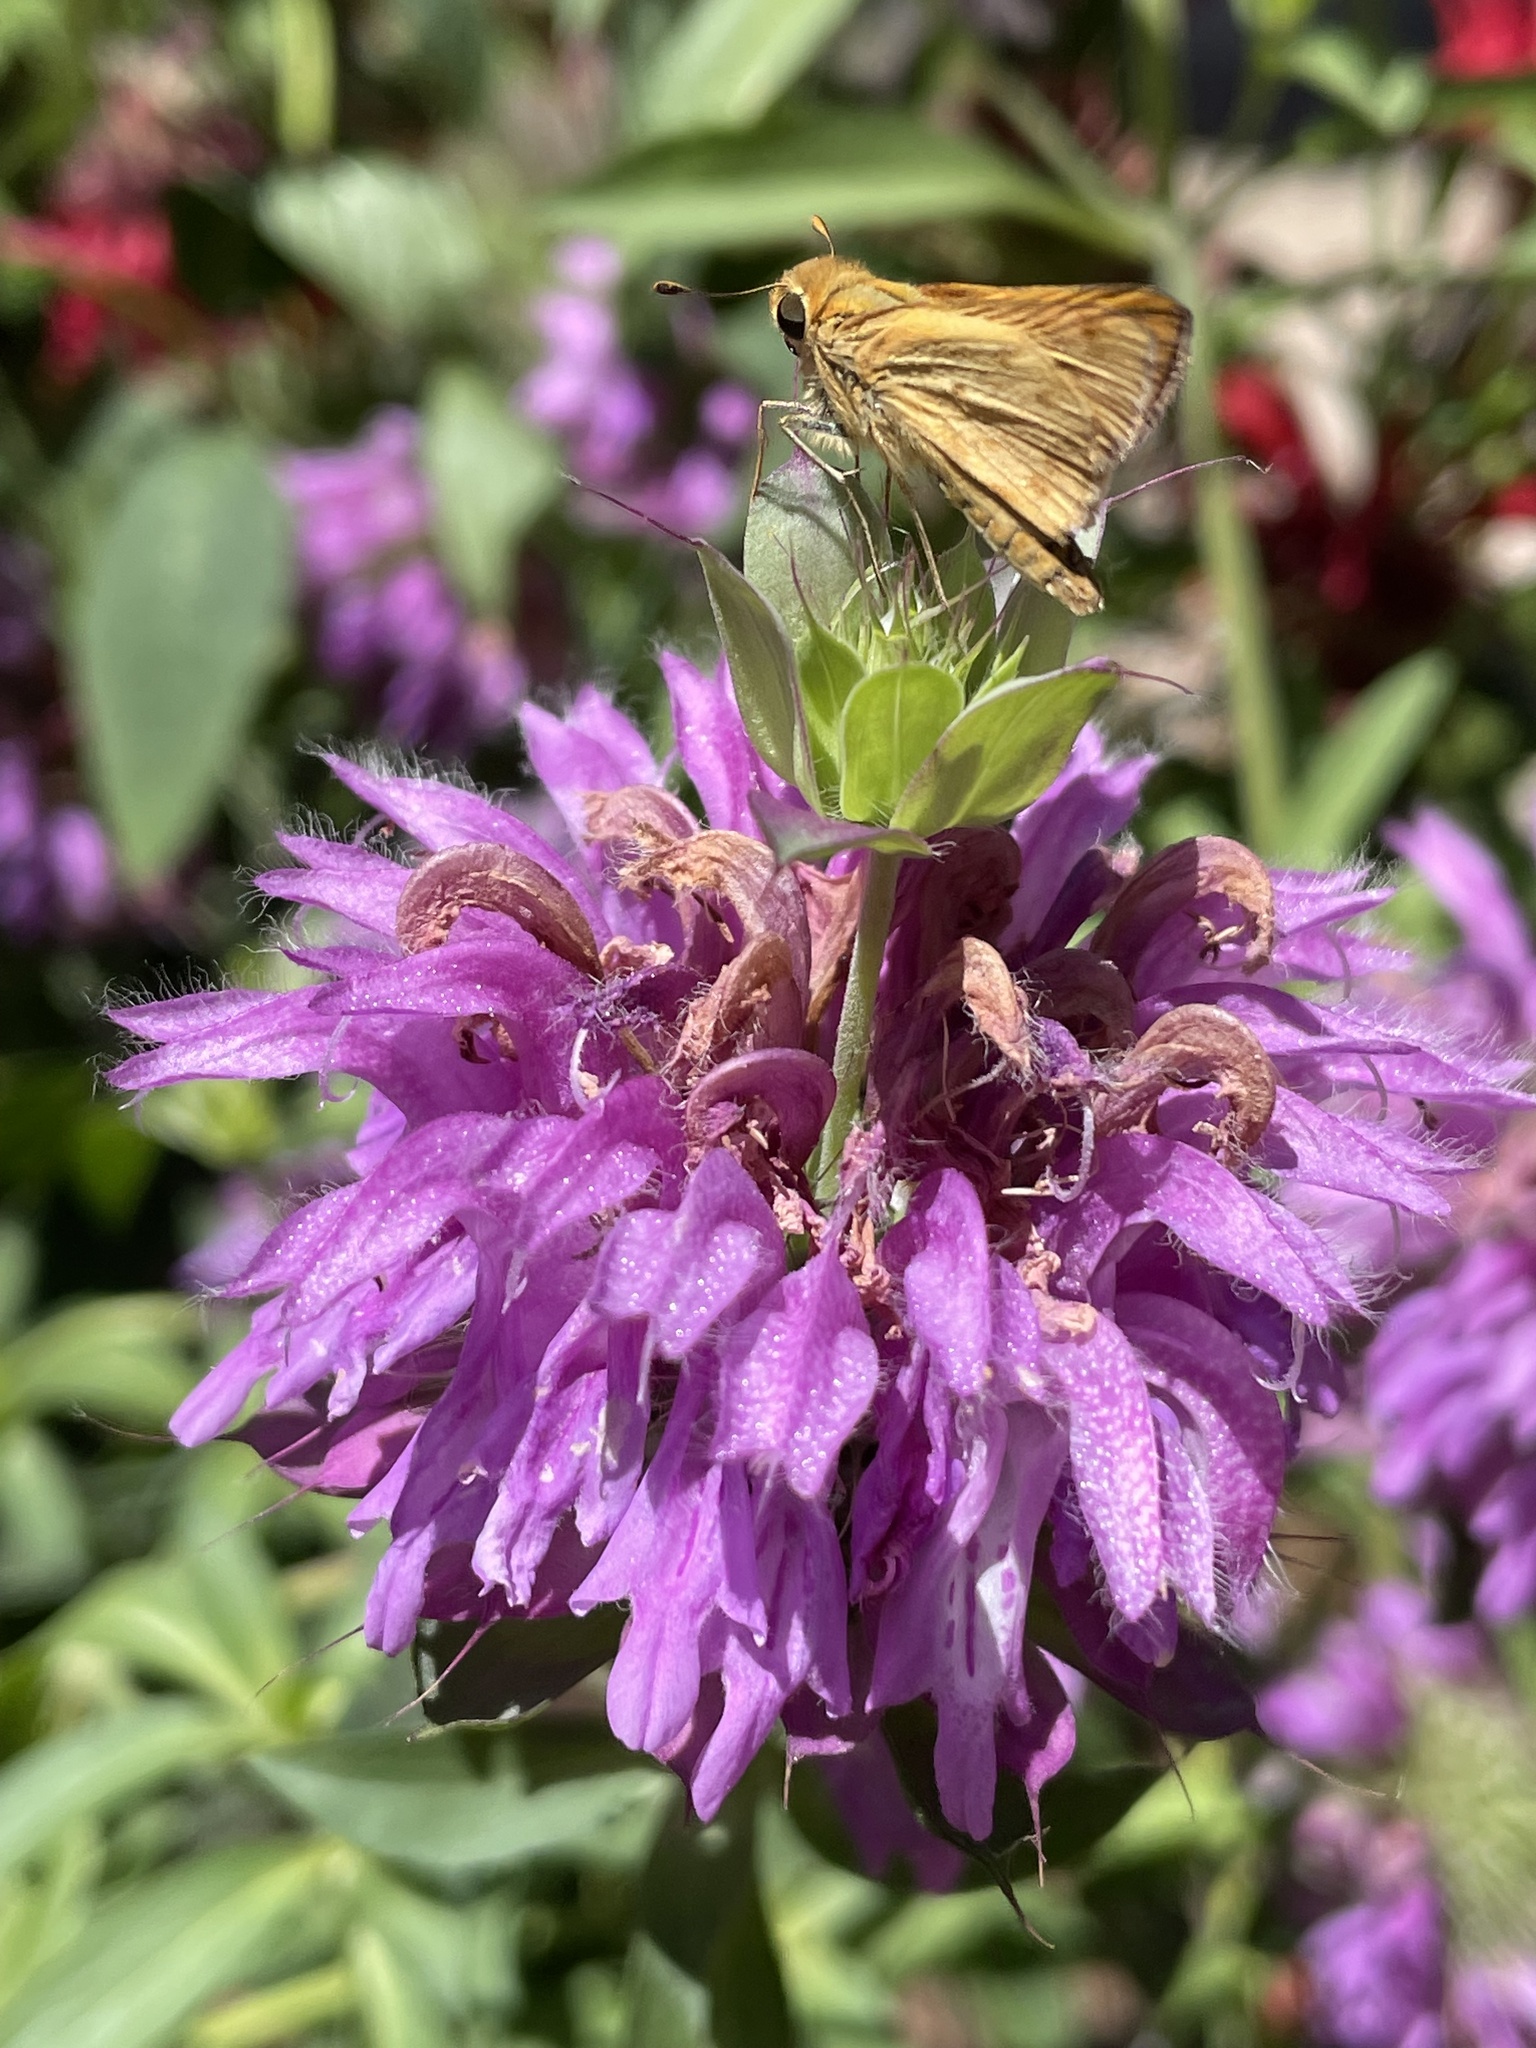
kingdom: Animalia
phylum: Arthropoda
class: Insecta
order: Lepidoptera
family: Hesperiidae
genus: Hylephila
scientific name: Hylephila phyleus
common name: Fiery skipper
